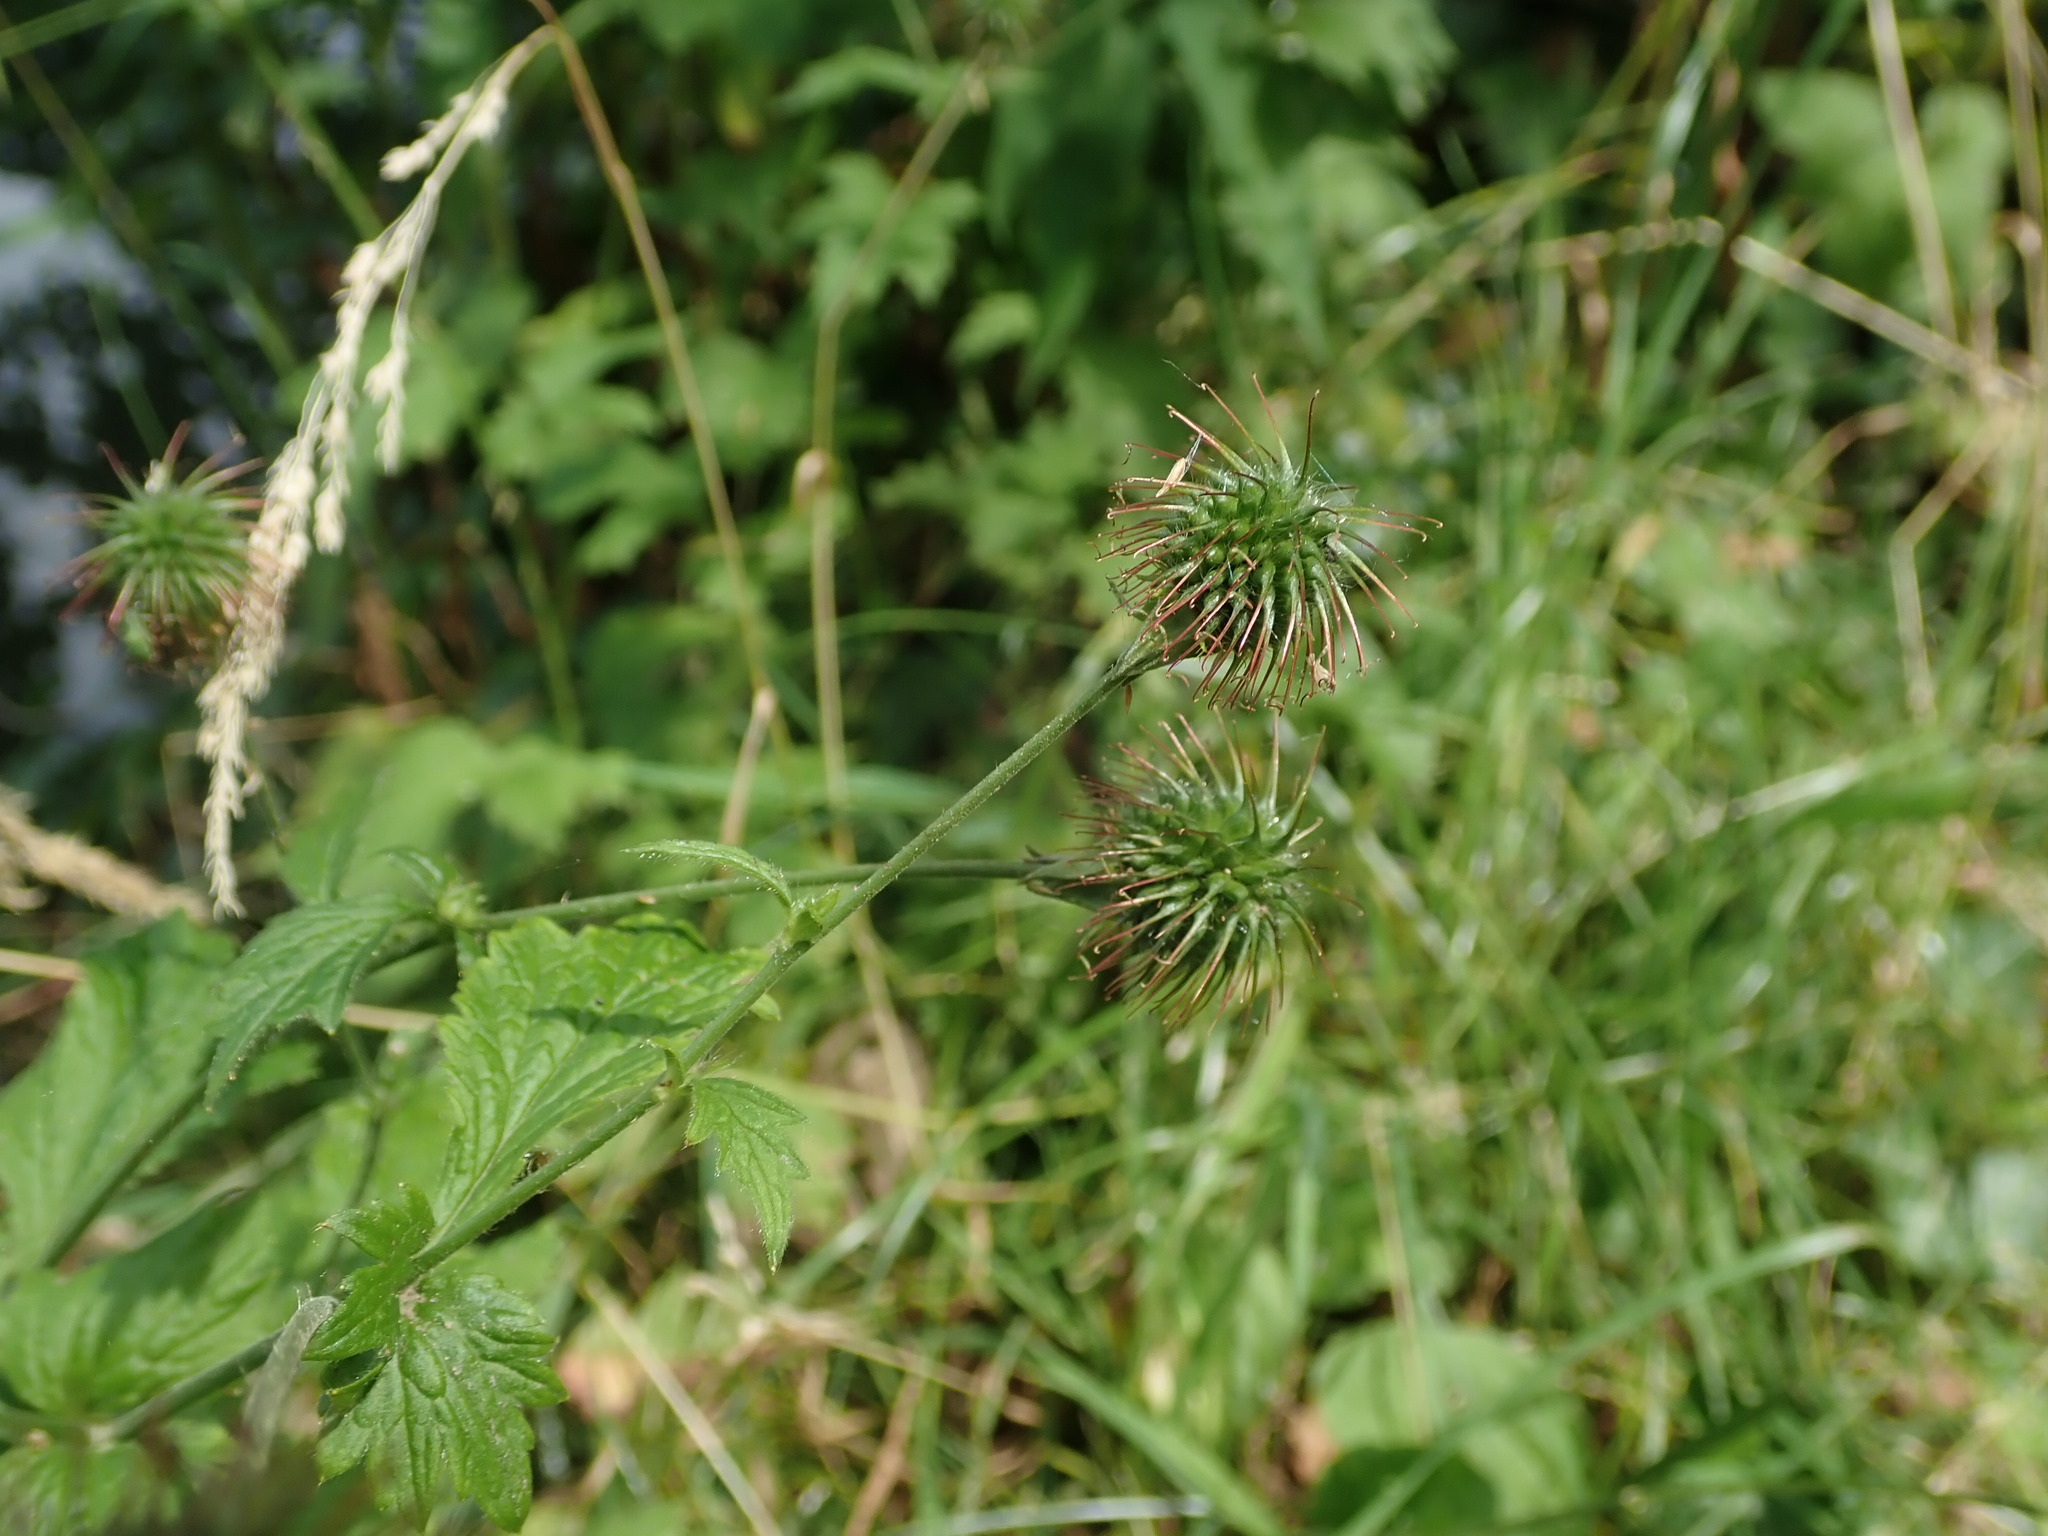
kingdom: Plantae
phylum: Tracheophyta
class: Magnoliopsida
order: Rosales
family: Rosaceae
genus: Geum
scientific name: Geum urbanum
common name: Wood avens
